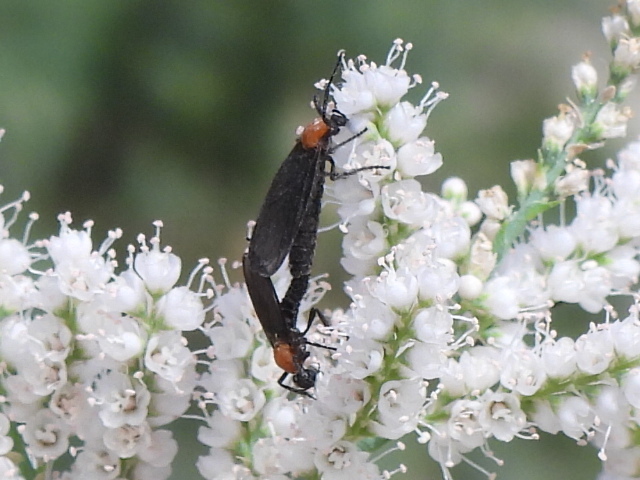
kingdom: Animalia
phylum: Arthropoda
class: Insecta
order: Diptera
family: Bibionidae
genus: Plecia
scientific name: Plecia nearctica
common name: March fly
